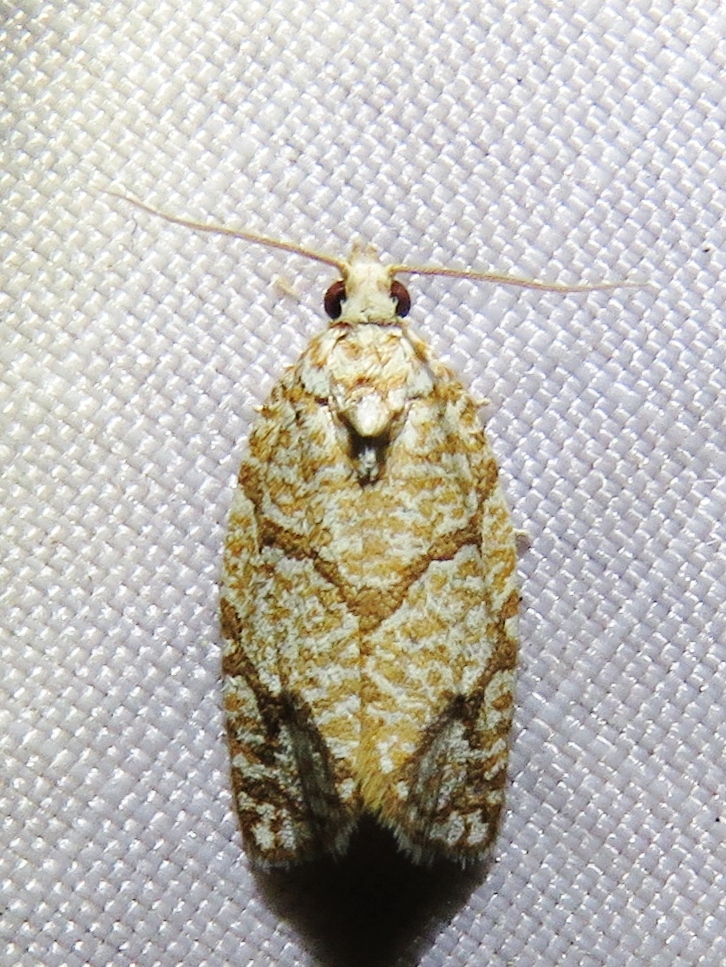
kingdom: Animalia
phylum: Arthropoda
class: Insecta
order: Lepidoptera
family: Tortricidae
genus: Argyrotaenia
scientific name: Argyrotaenia quercifoliana
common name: Yellow-winged oak leafroller moth
